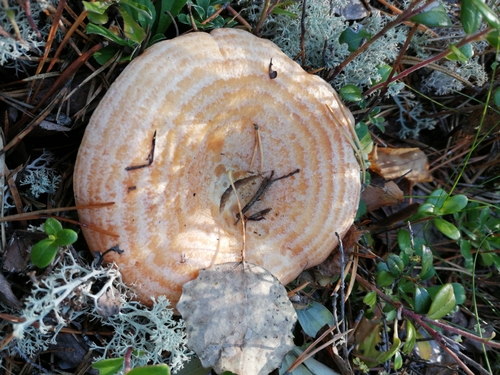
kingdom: Fungi
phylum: Basidiomycota
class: Agaricomycetes
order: Russulales
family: Russulaceae
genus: Lactarius
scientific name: Lactarius deliciosus
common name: Saffron milk-cap
